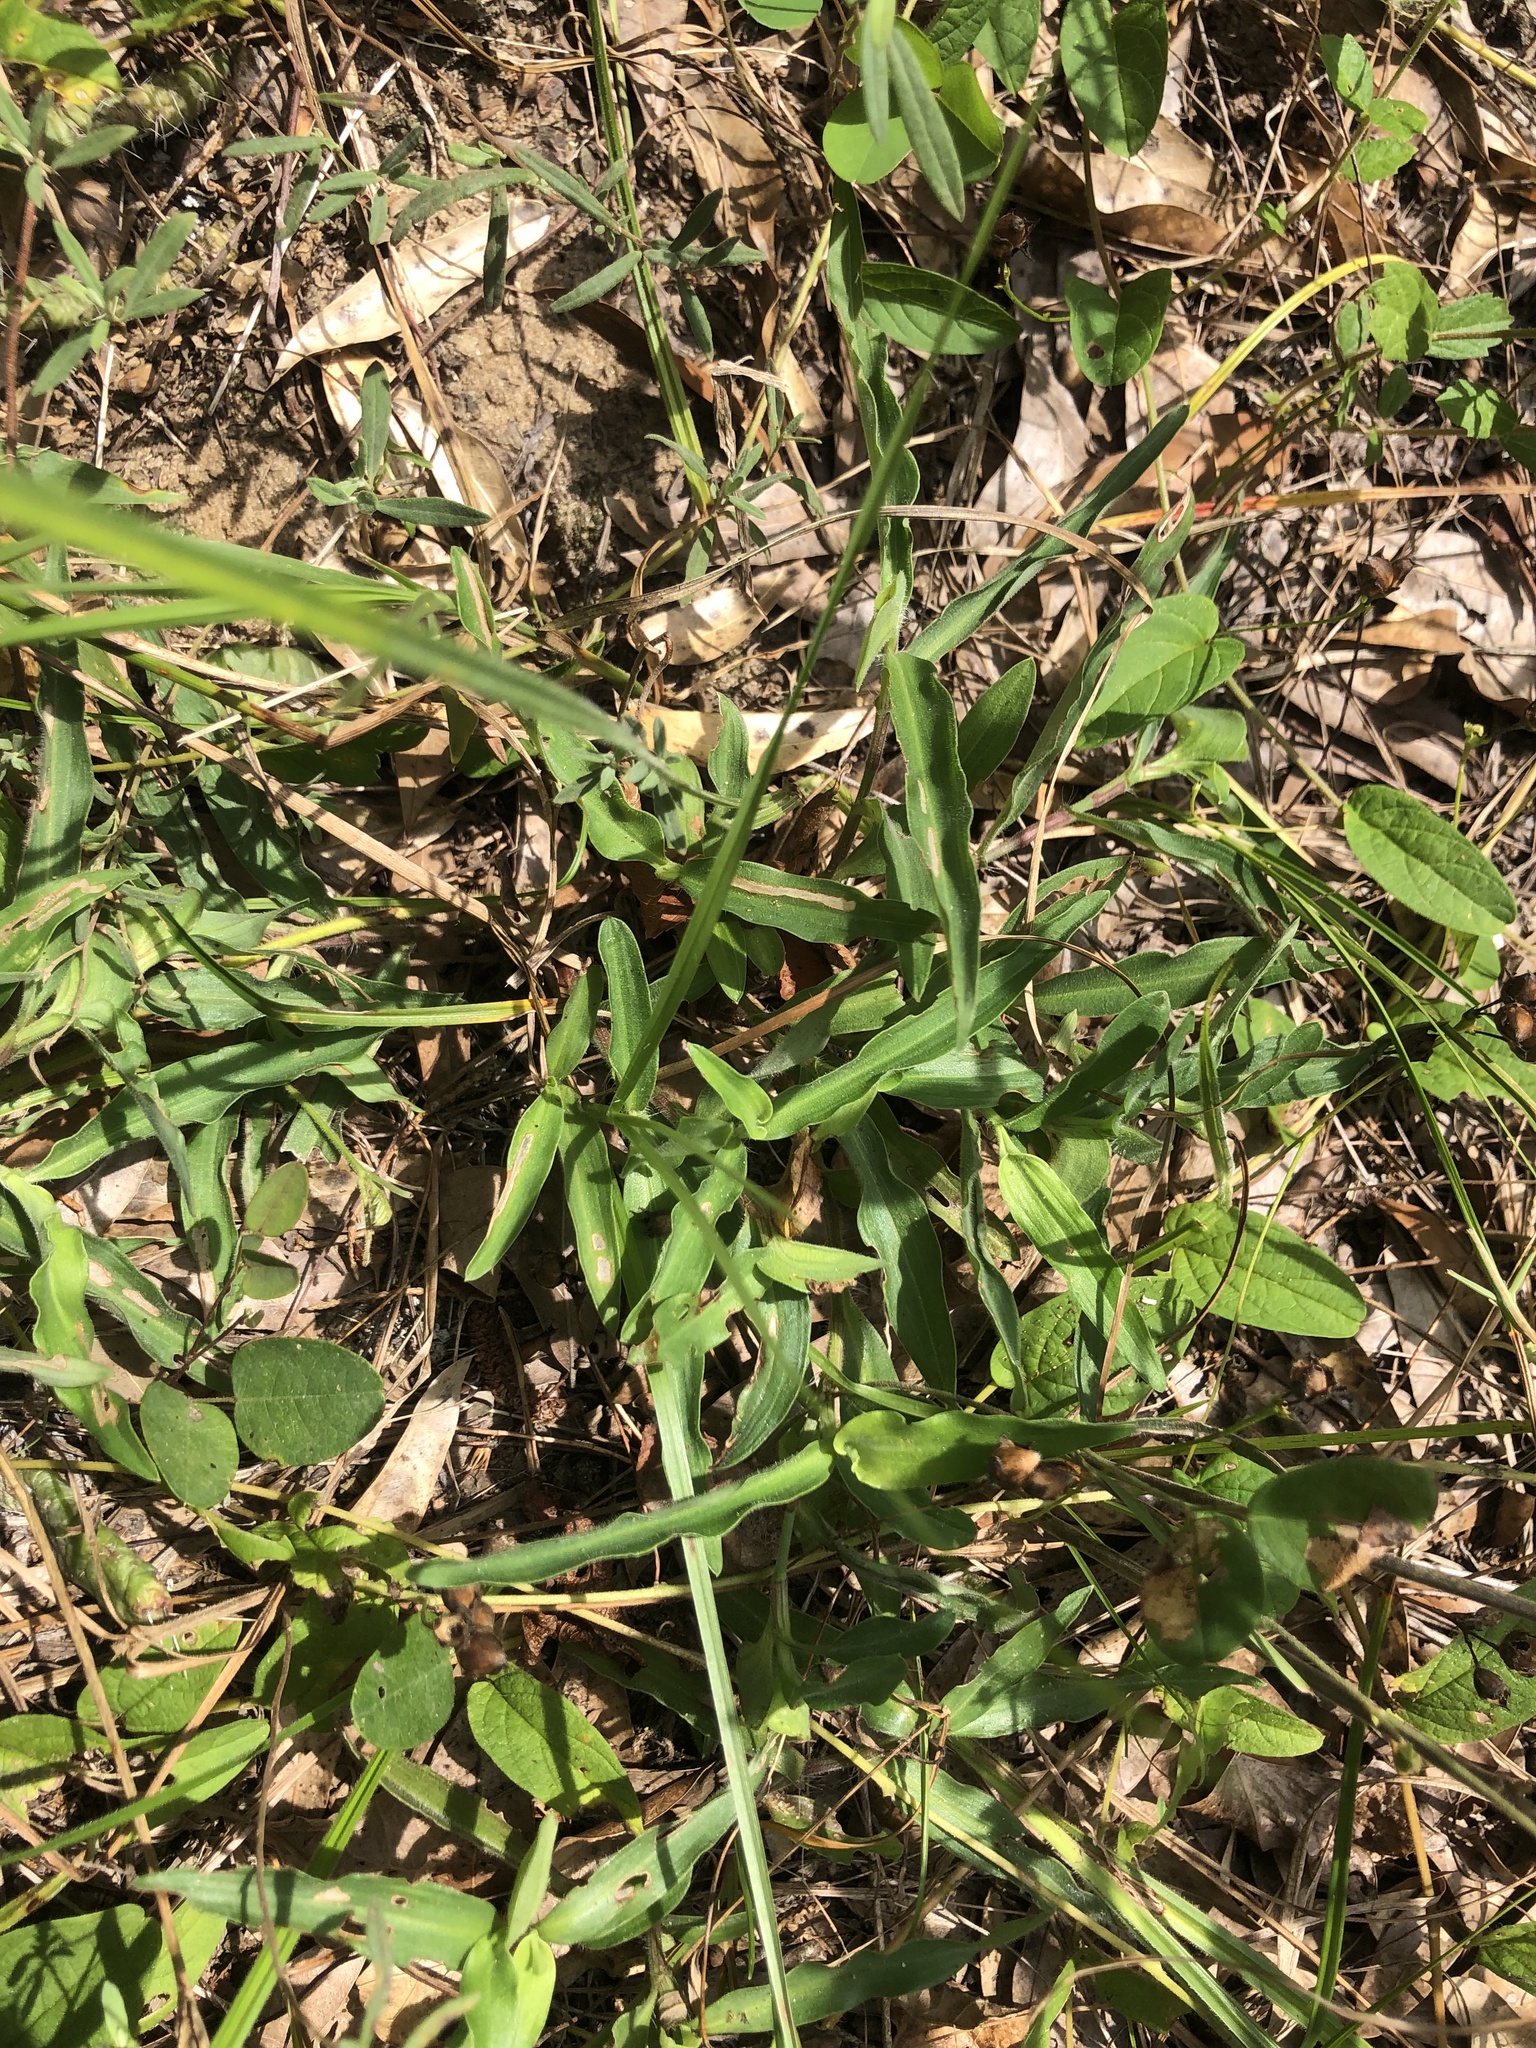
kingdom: Plantae
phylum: Tracheophyta
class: Liliopsida
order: Commelinales
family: Commelinaceae
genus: Commelina
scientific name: Commelina erecta
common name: Blousel blommetjie
